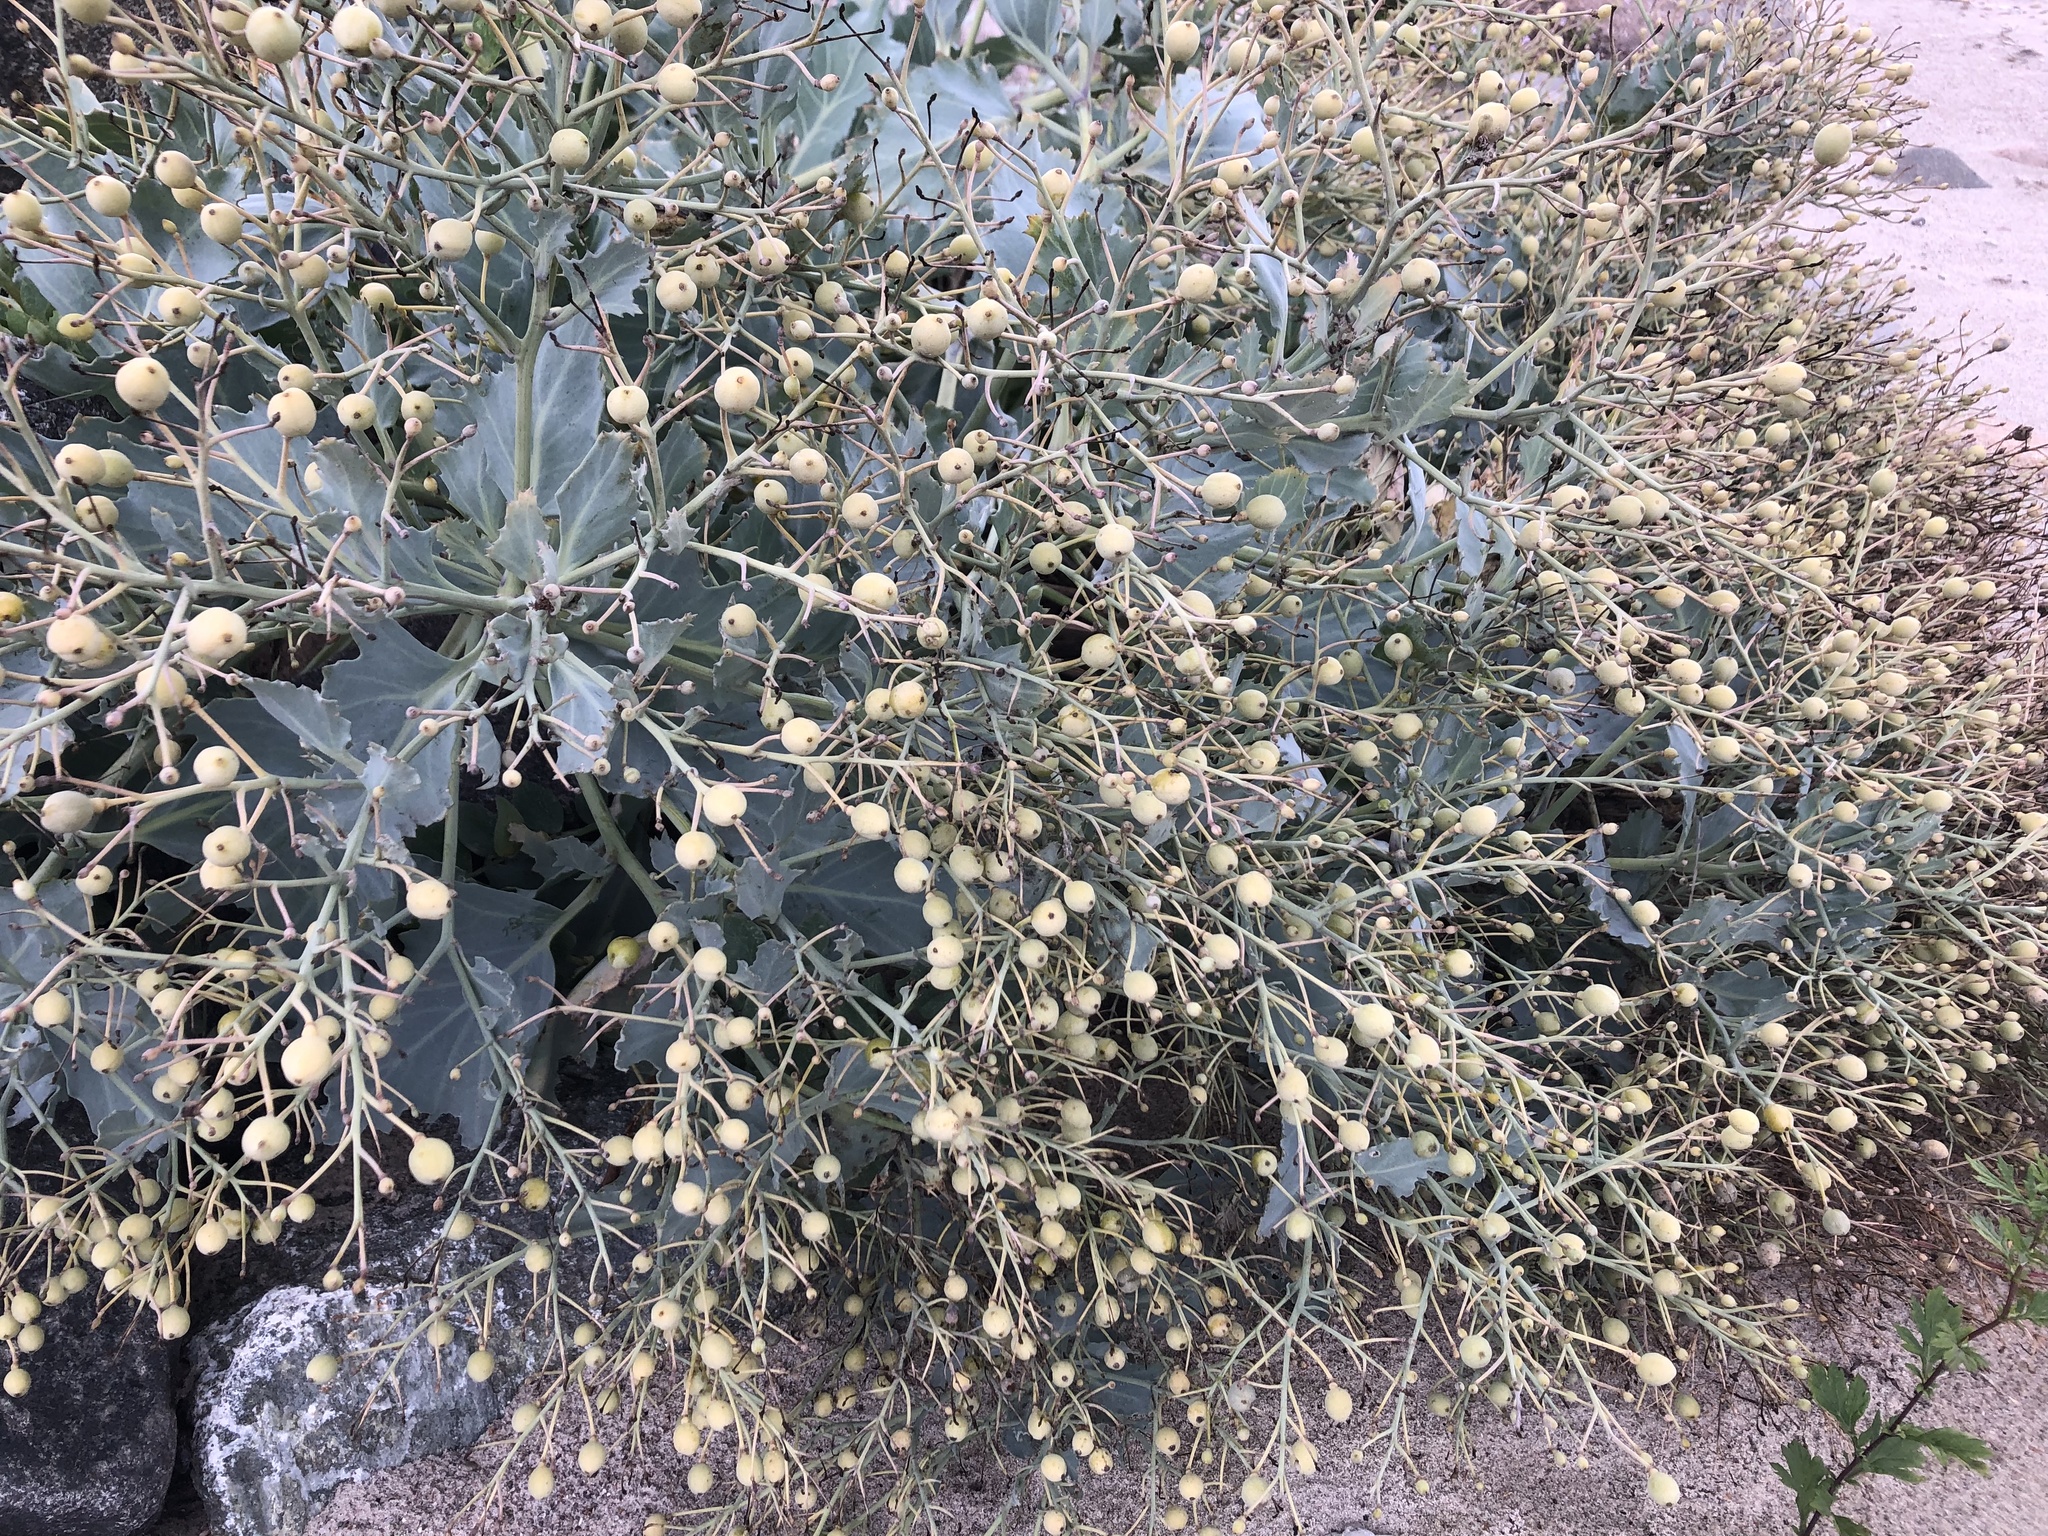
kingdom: Plantae
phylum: Tracheophyta
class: Magnoliopsida
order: Brassicales
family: Brassicaceae
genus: Crambe
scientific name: Crambe maritima
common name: Sea-kale
